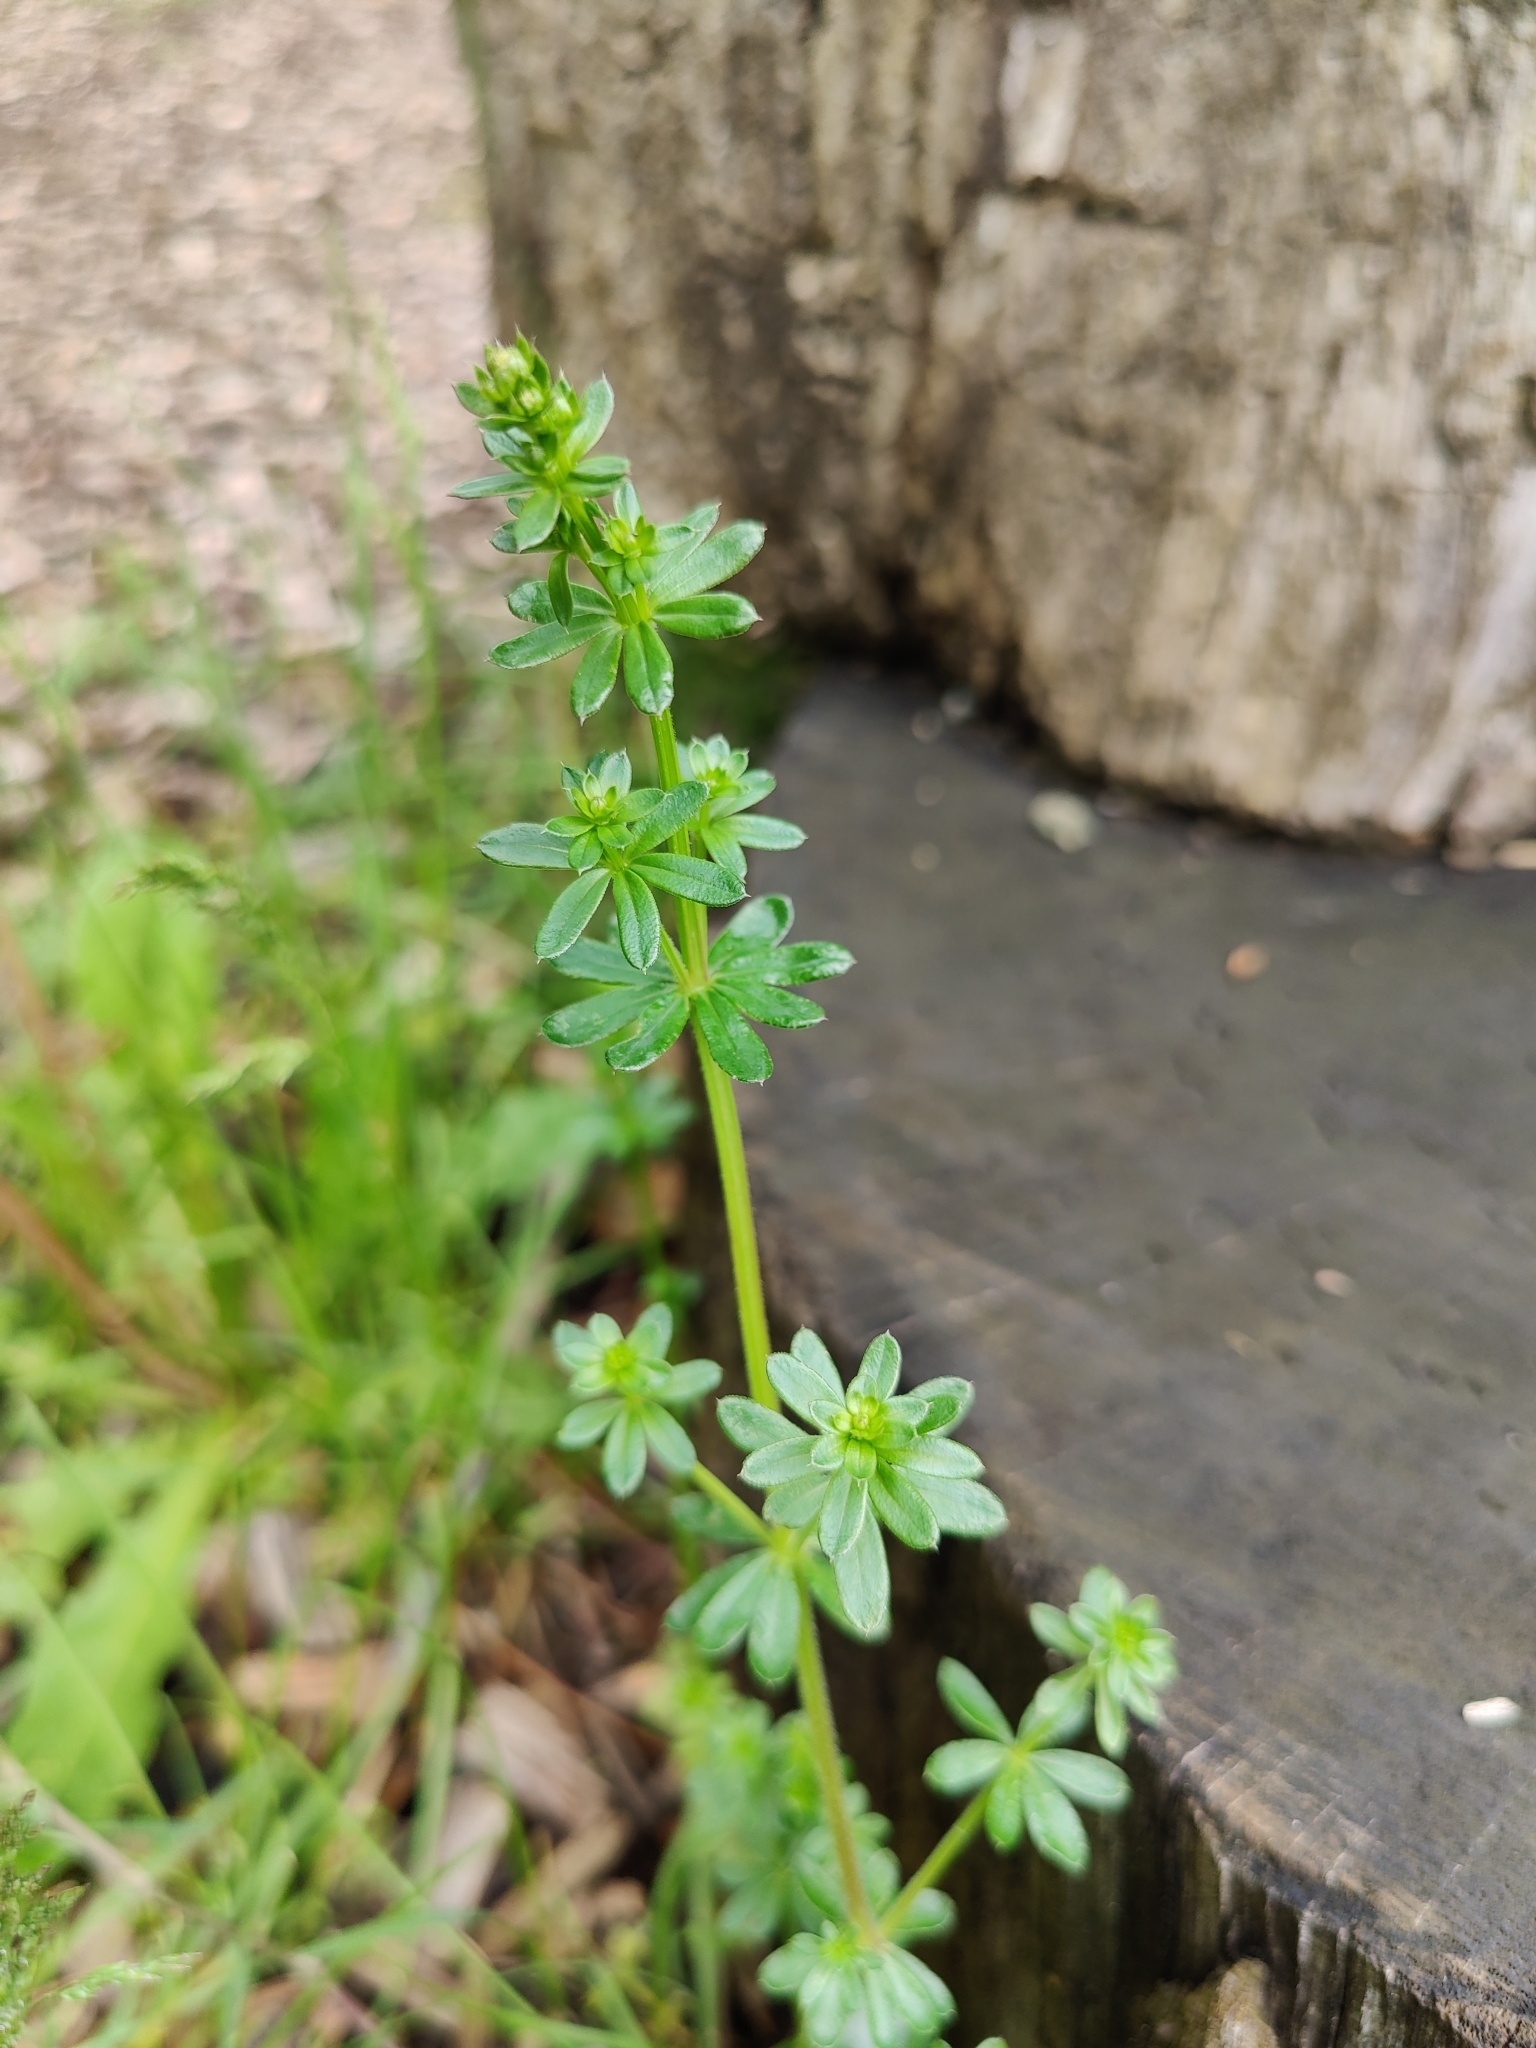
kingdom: Plantae
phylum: Tracheophyta
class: Magnoliopsida
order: Gentianales
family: Rubiaceae
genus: Galium
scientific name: Galium mollugo
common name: Hedge bedstraw
